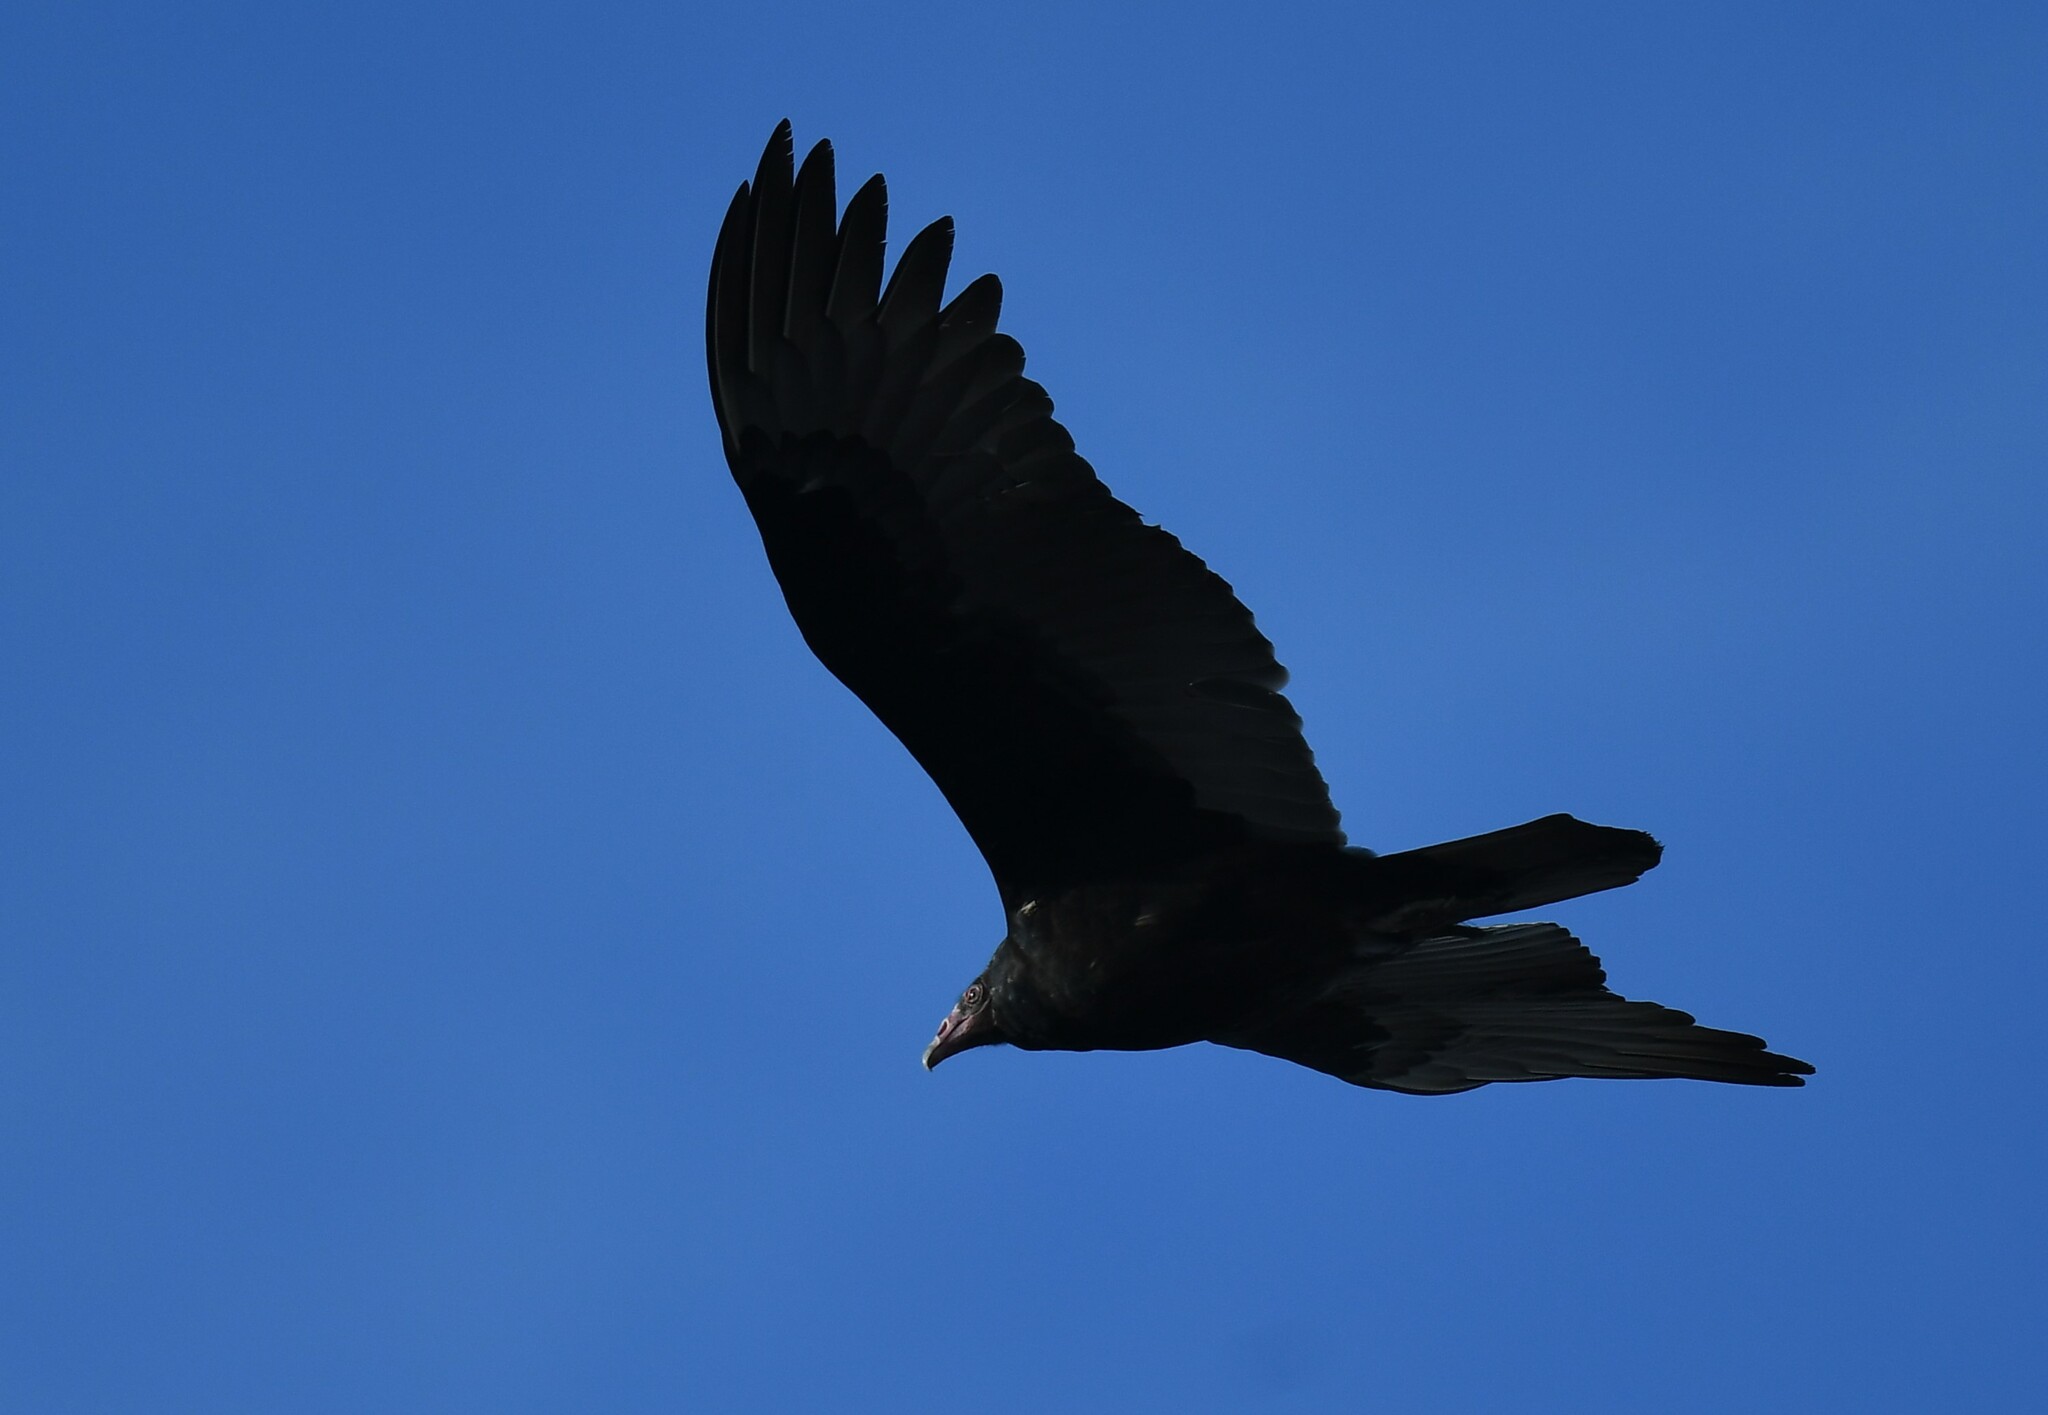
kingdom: Animalia
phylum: Chordata
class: Aves
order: Accipitriformes
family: Cathartidae
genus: Cathartes
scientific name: Cathartes aura
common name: Turkey vulture
